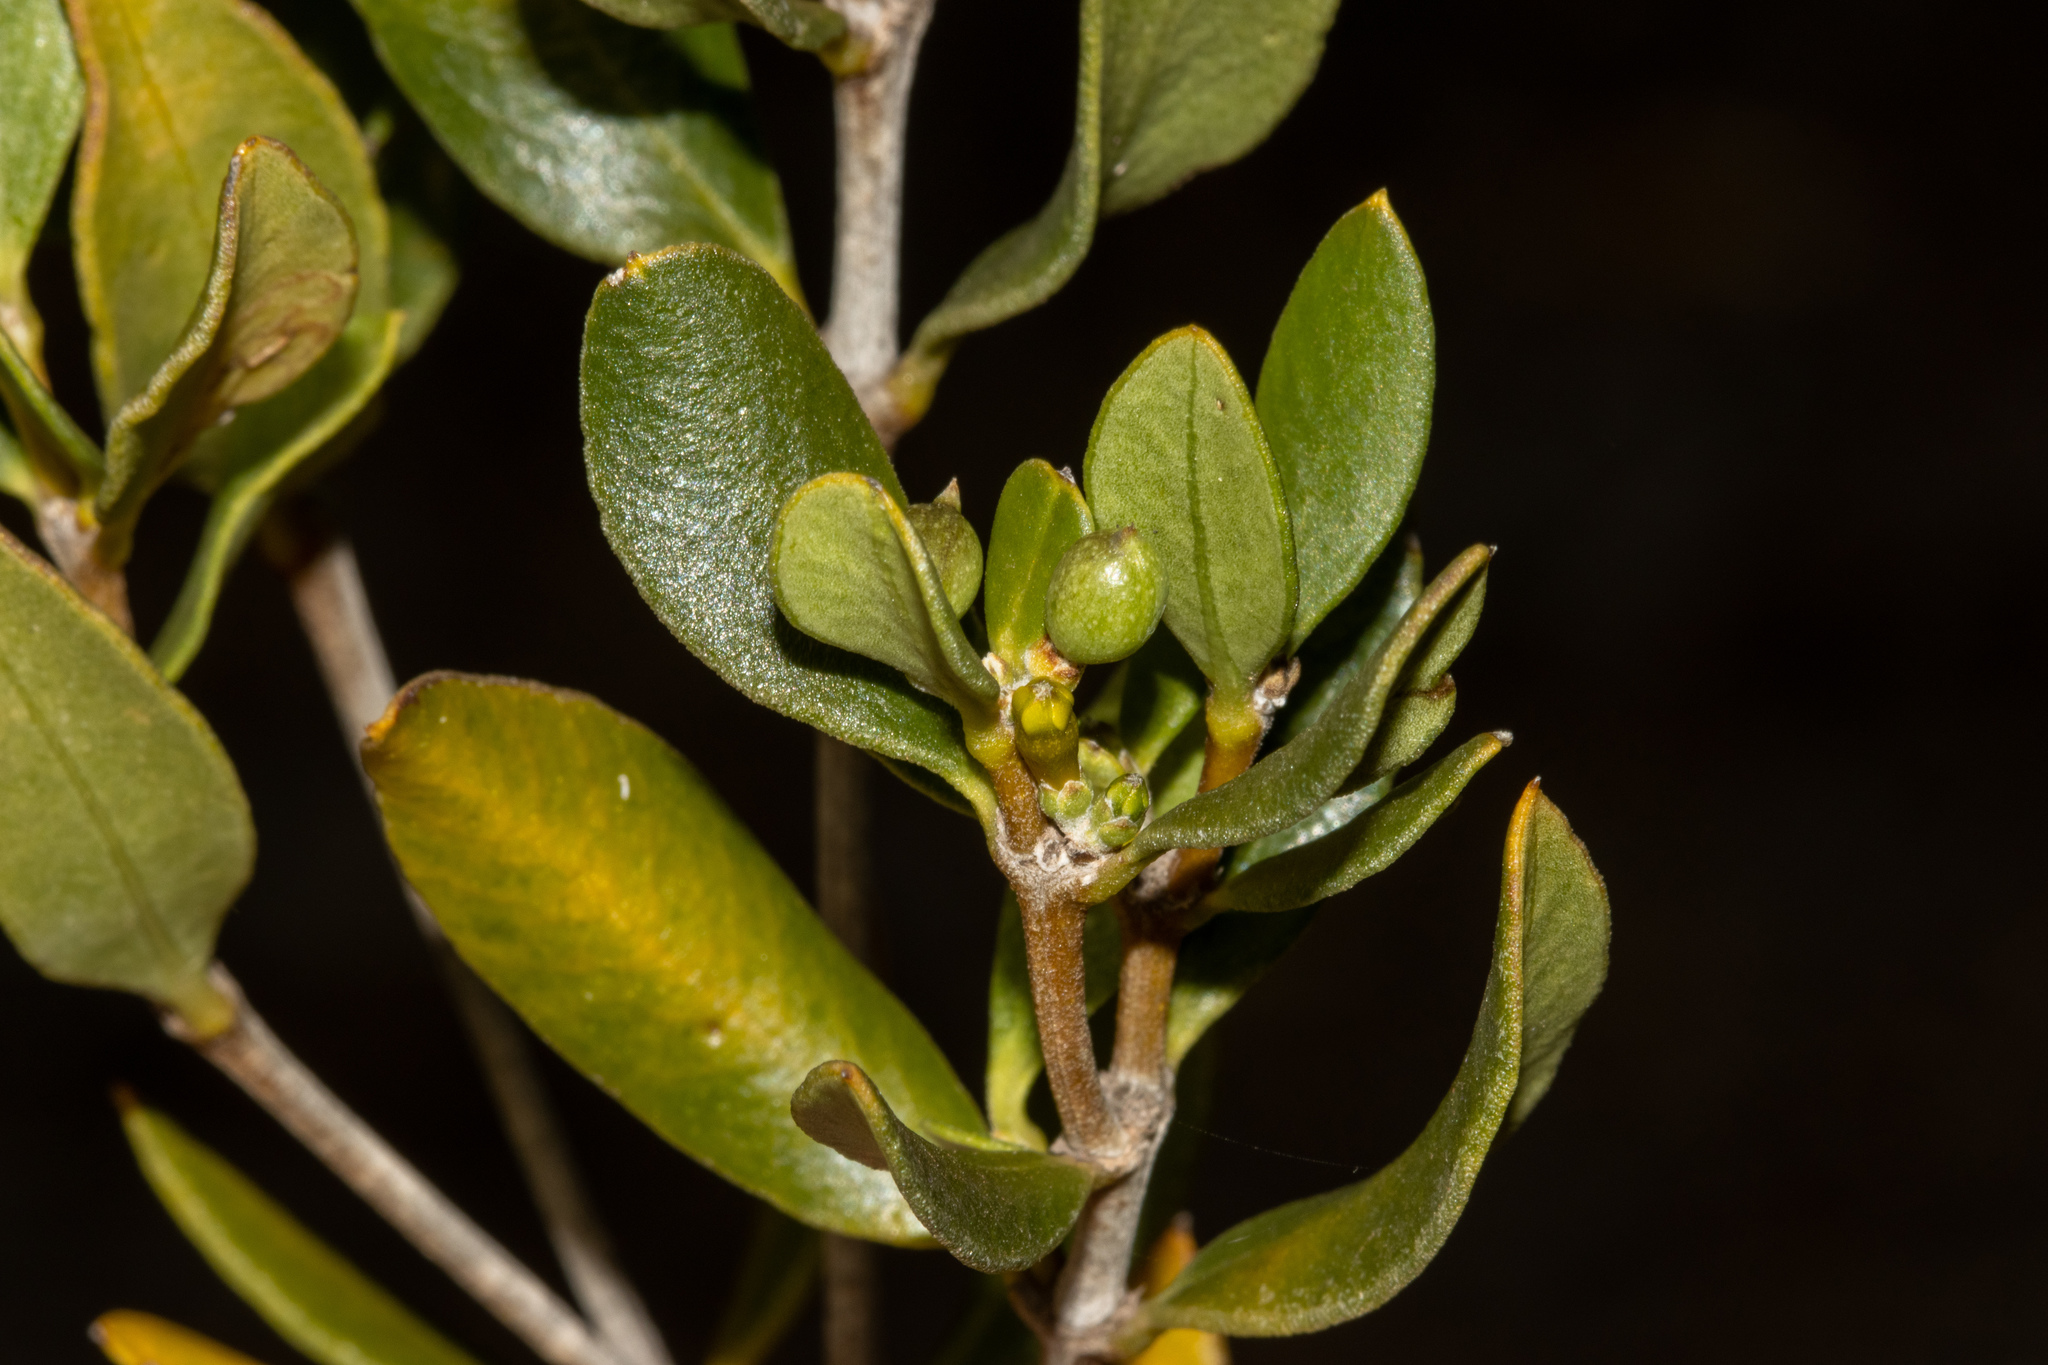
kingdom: Plantae
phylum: Tracheophyta
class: Magnoliopsida
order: Gentianales
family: Apocynaceae
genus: Alyxia
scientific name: Alyxia buxifolia
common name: Dysentery-bush
